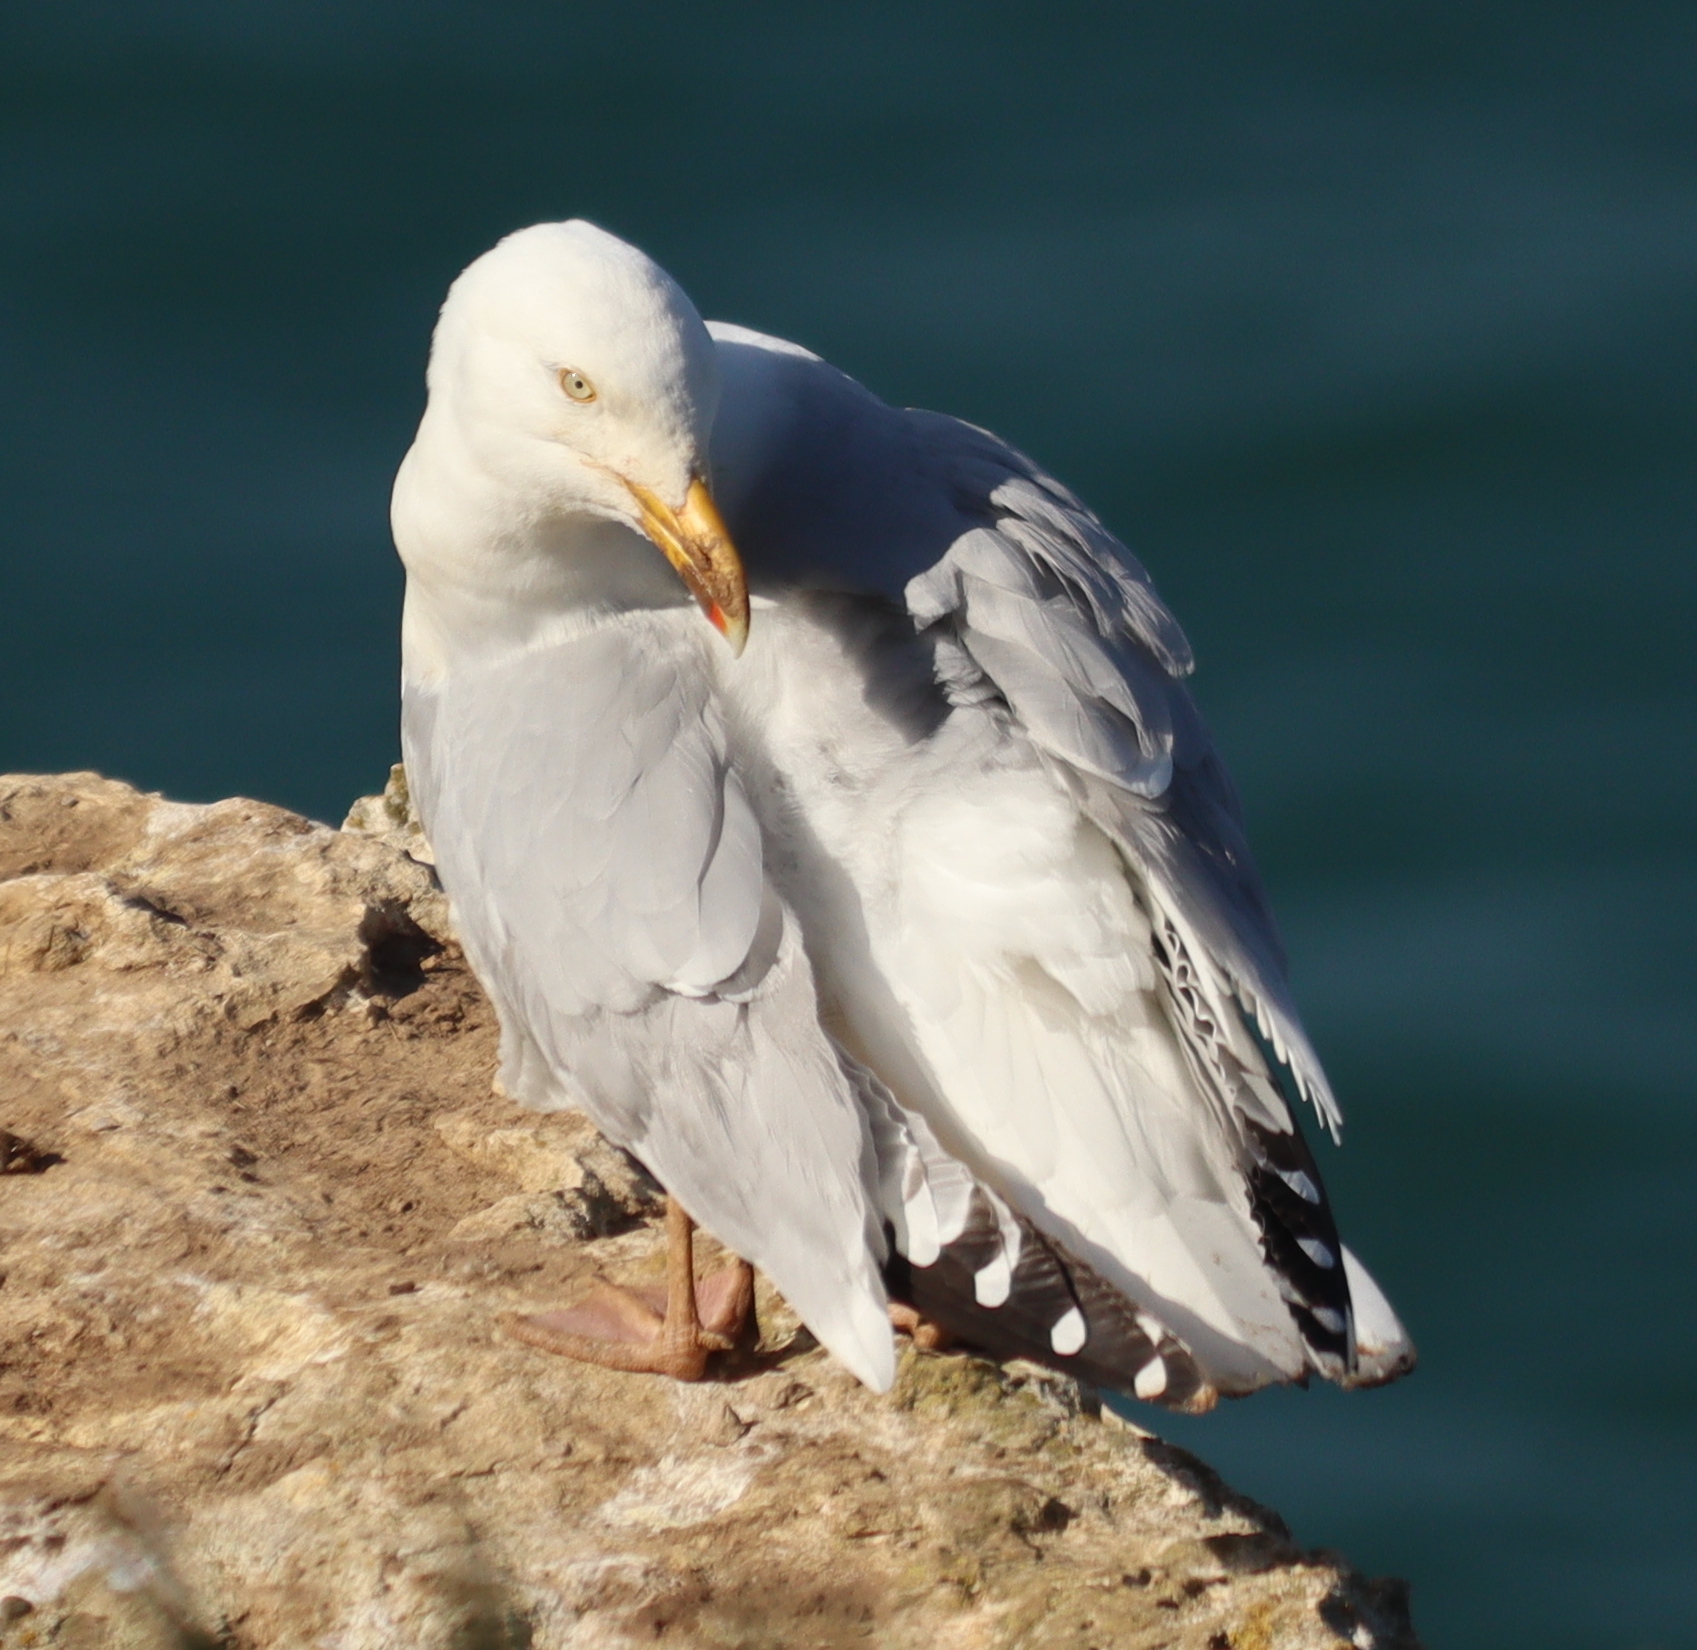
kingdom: Animalia
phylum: Chordata
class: Aves
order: Charadriiformes
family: Laridae
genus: Larus
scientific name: Larus argentatus
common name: Herring gull
